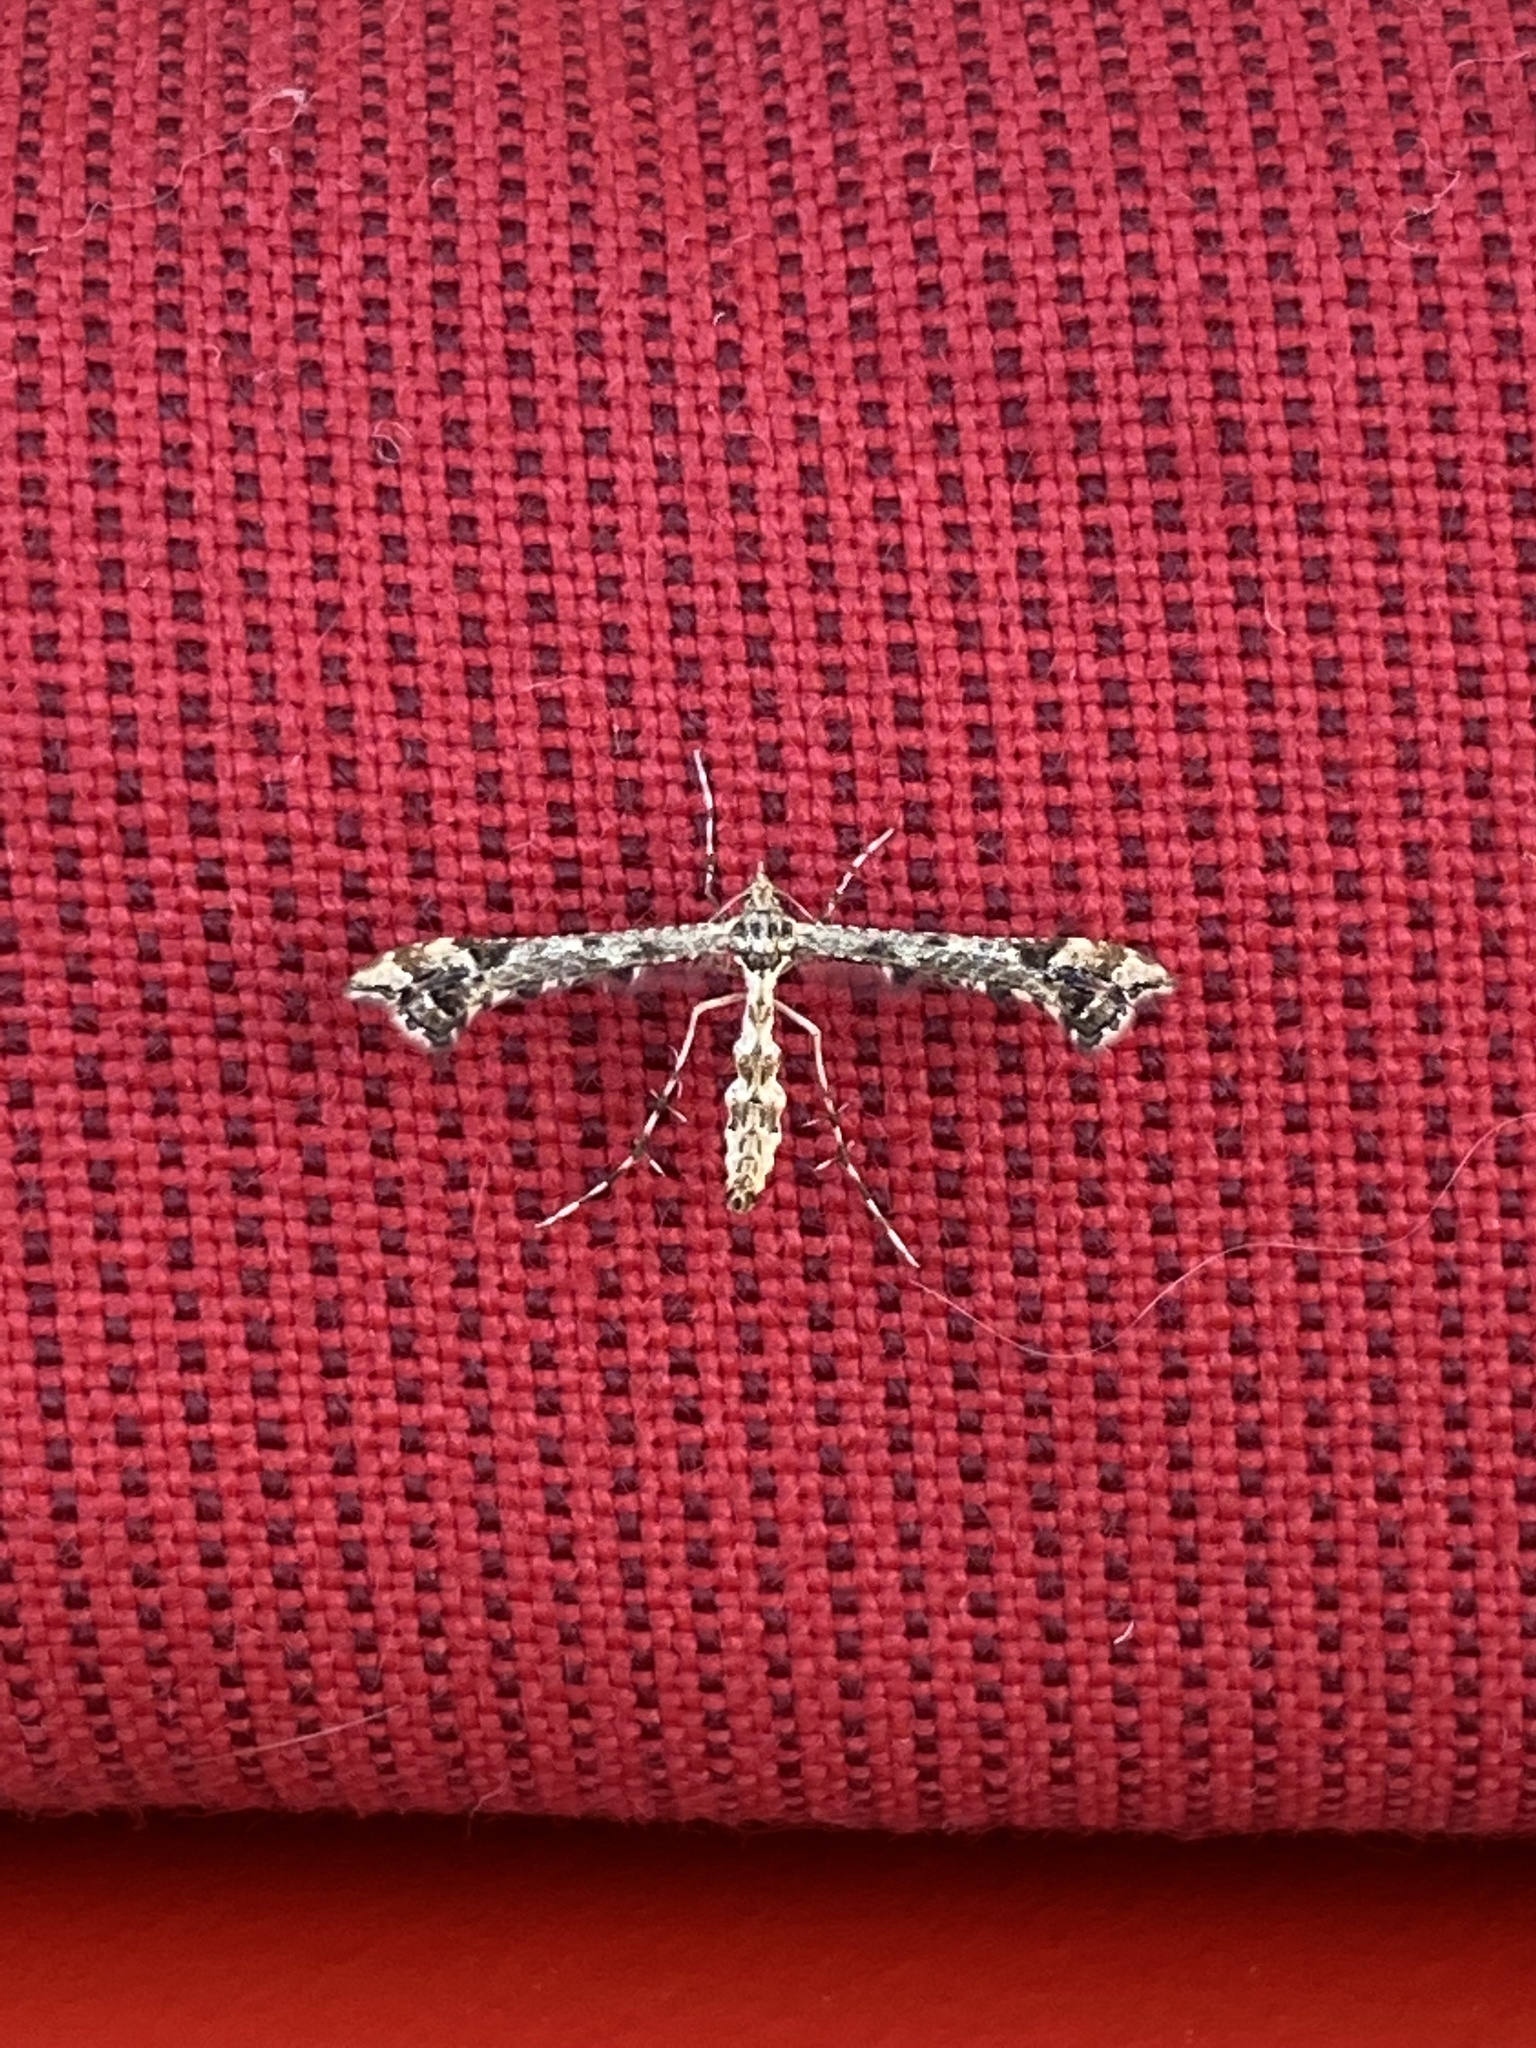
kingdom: Animalia
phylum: Arthropoda
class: Insecta
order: Lepidoptera
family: Pterophoridae
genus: Amblyptilia
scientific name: Amblyptilia pica
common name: Geranium plume moth
